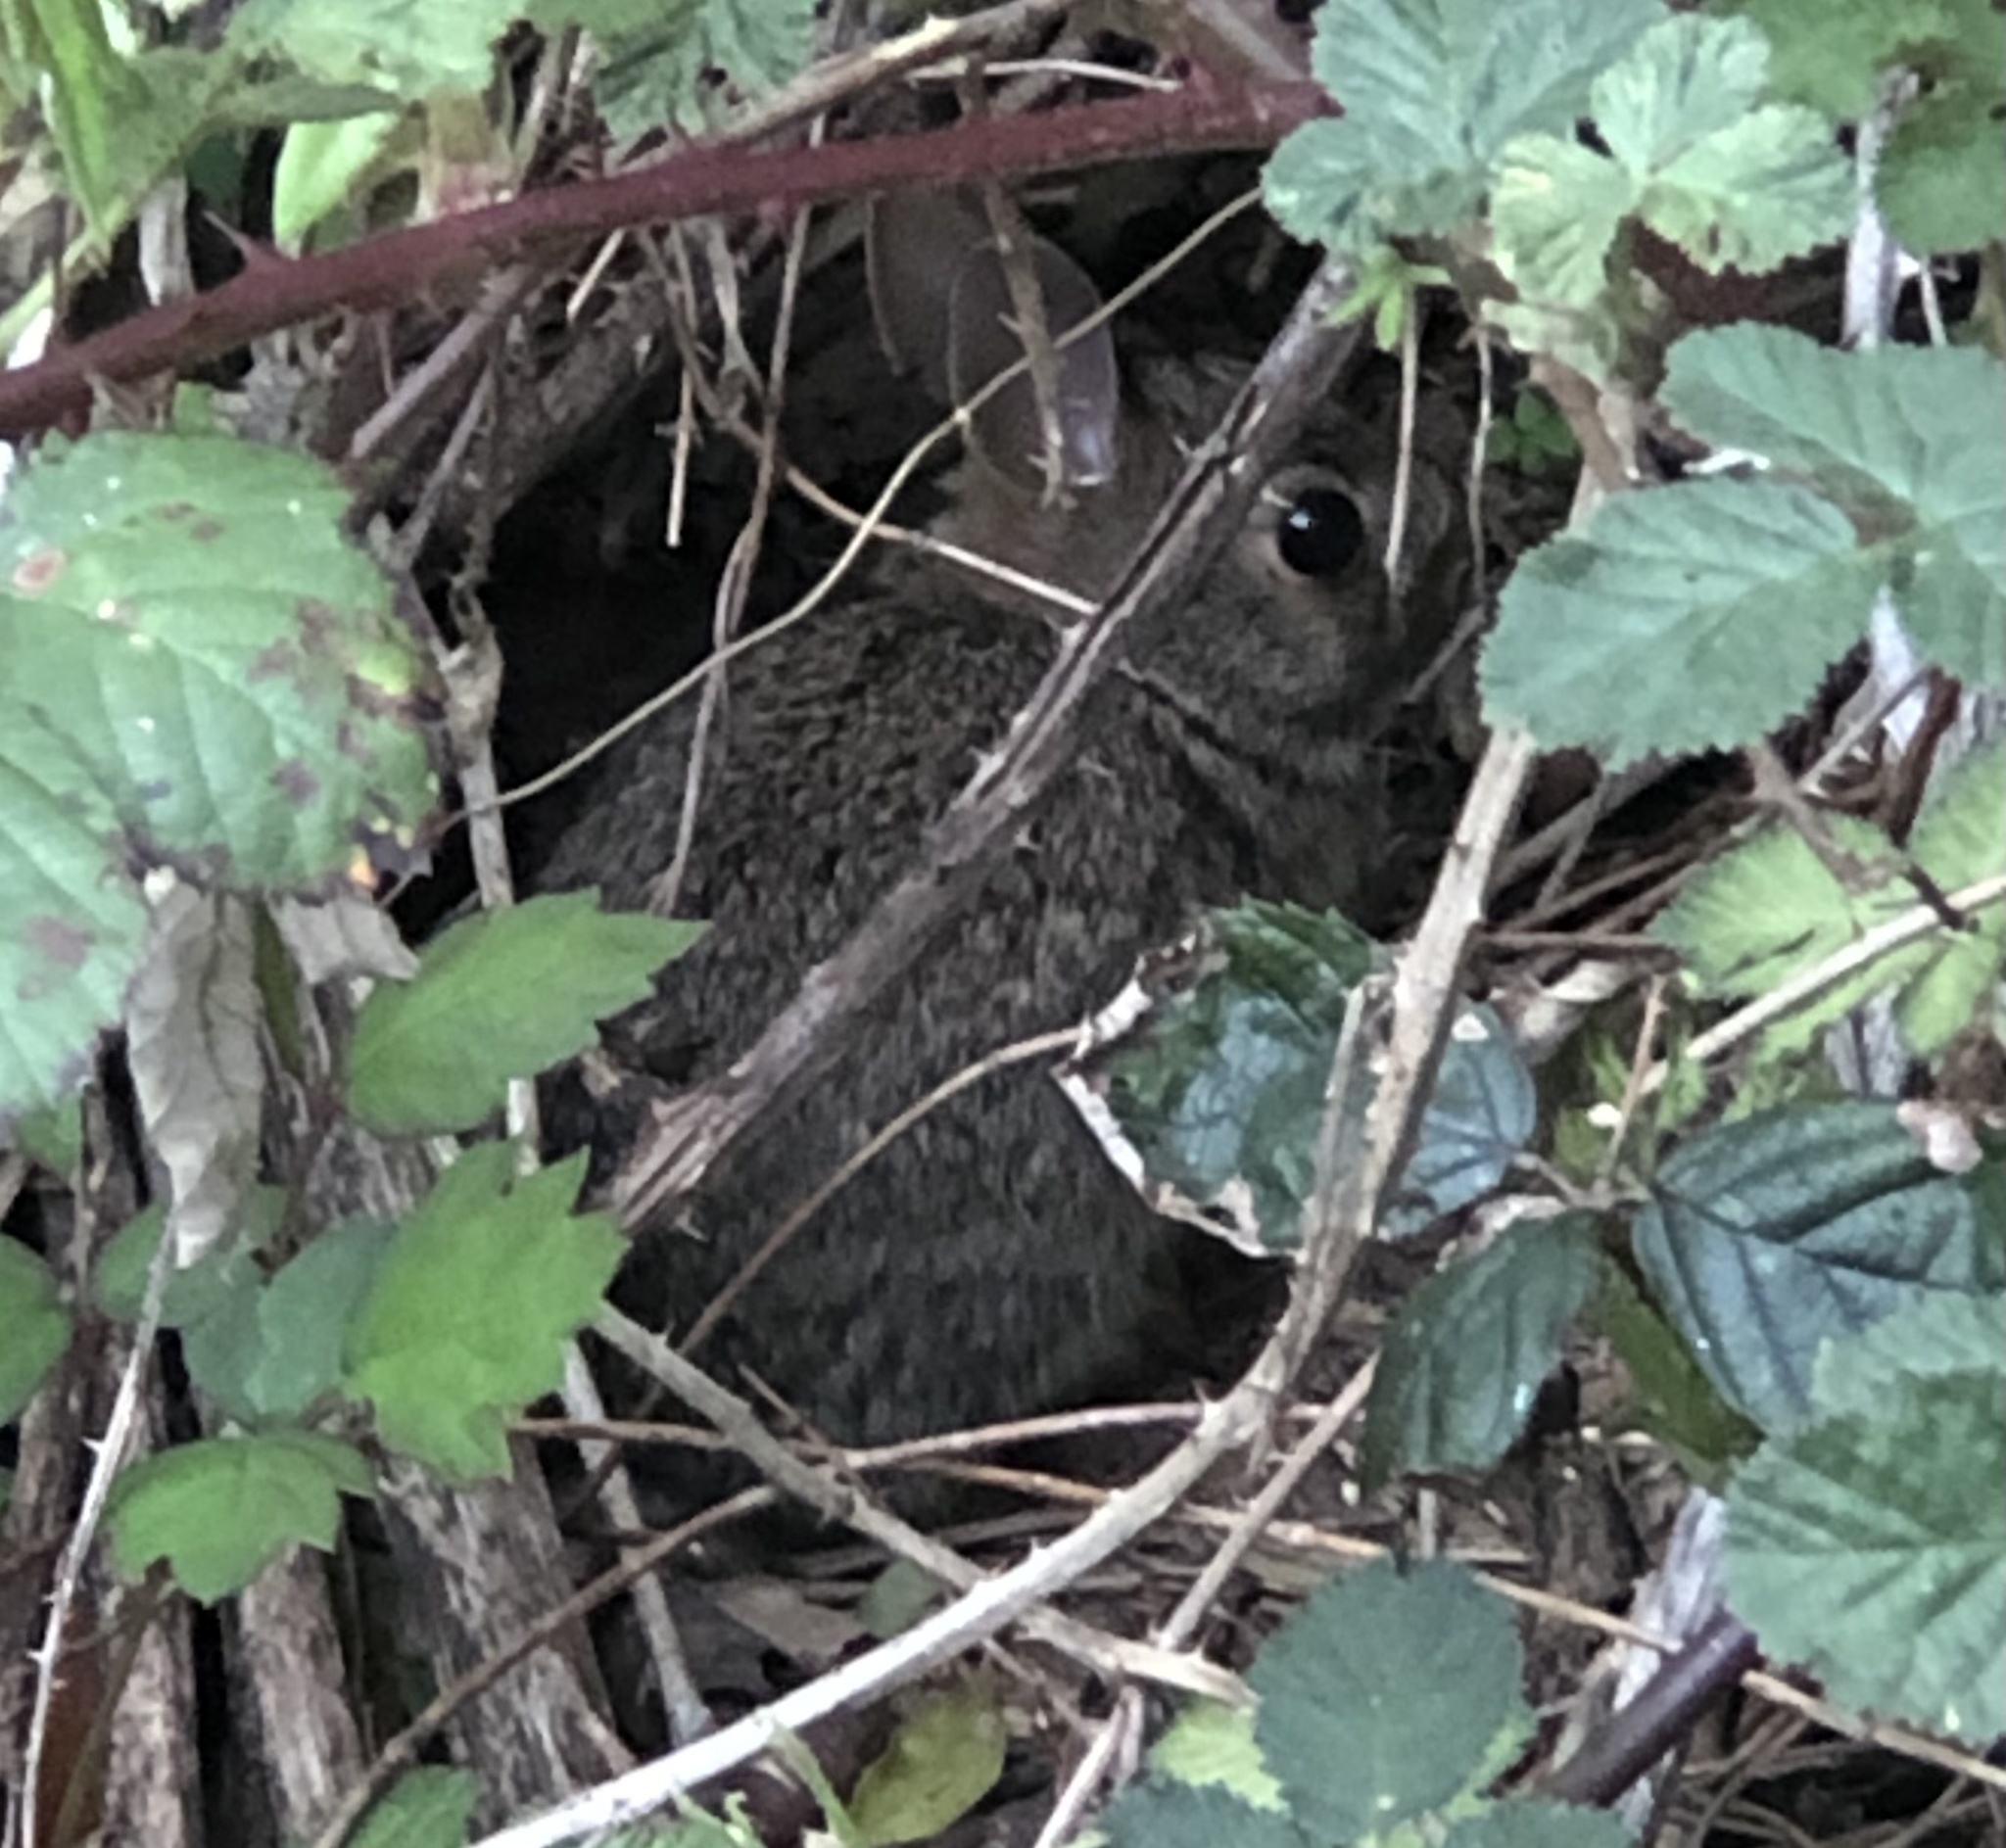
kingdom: Animalia
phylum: Chordata
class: Mammalia
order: Lagomorpha
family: Leporidae
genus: Sylvilagus
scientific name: Sylvilagus floridanus
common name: Eastern cottontail
